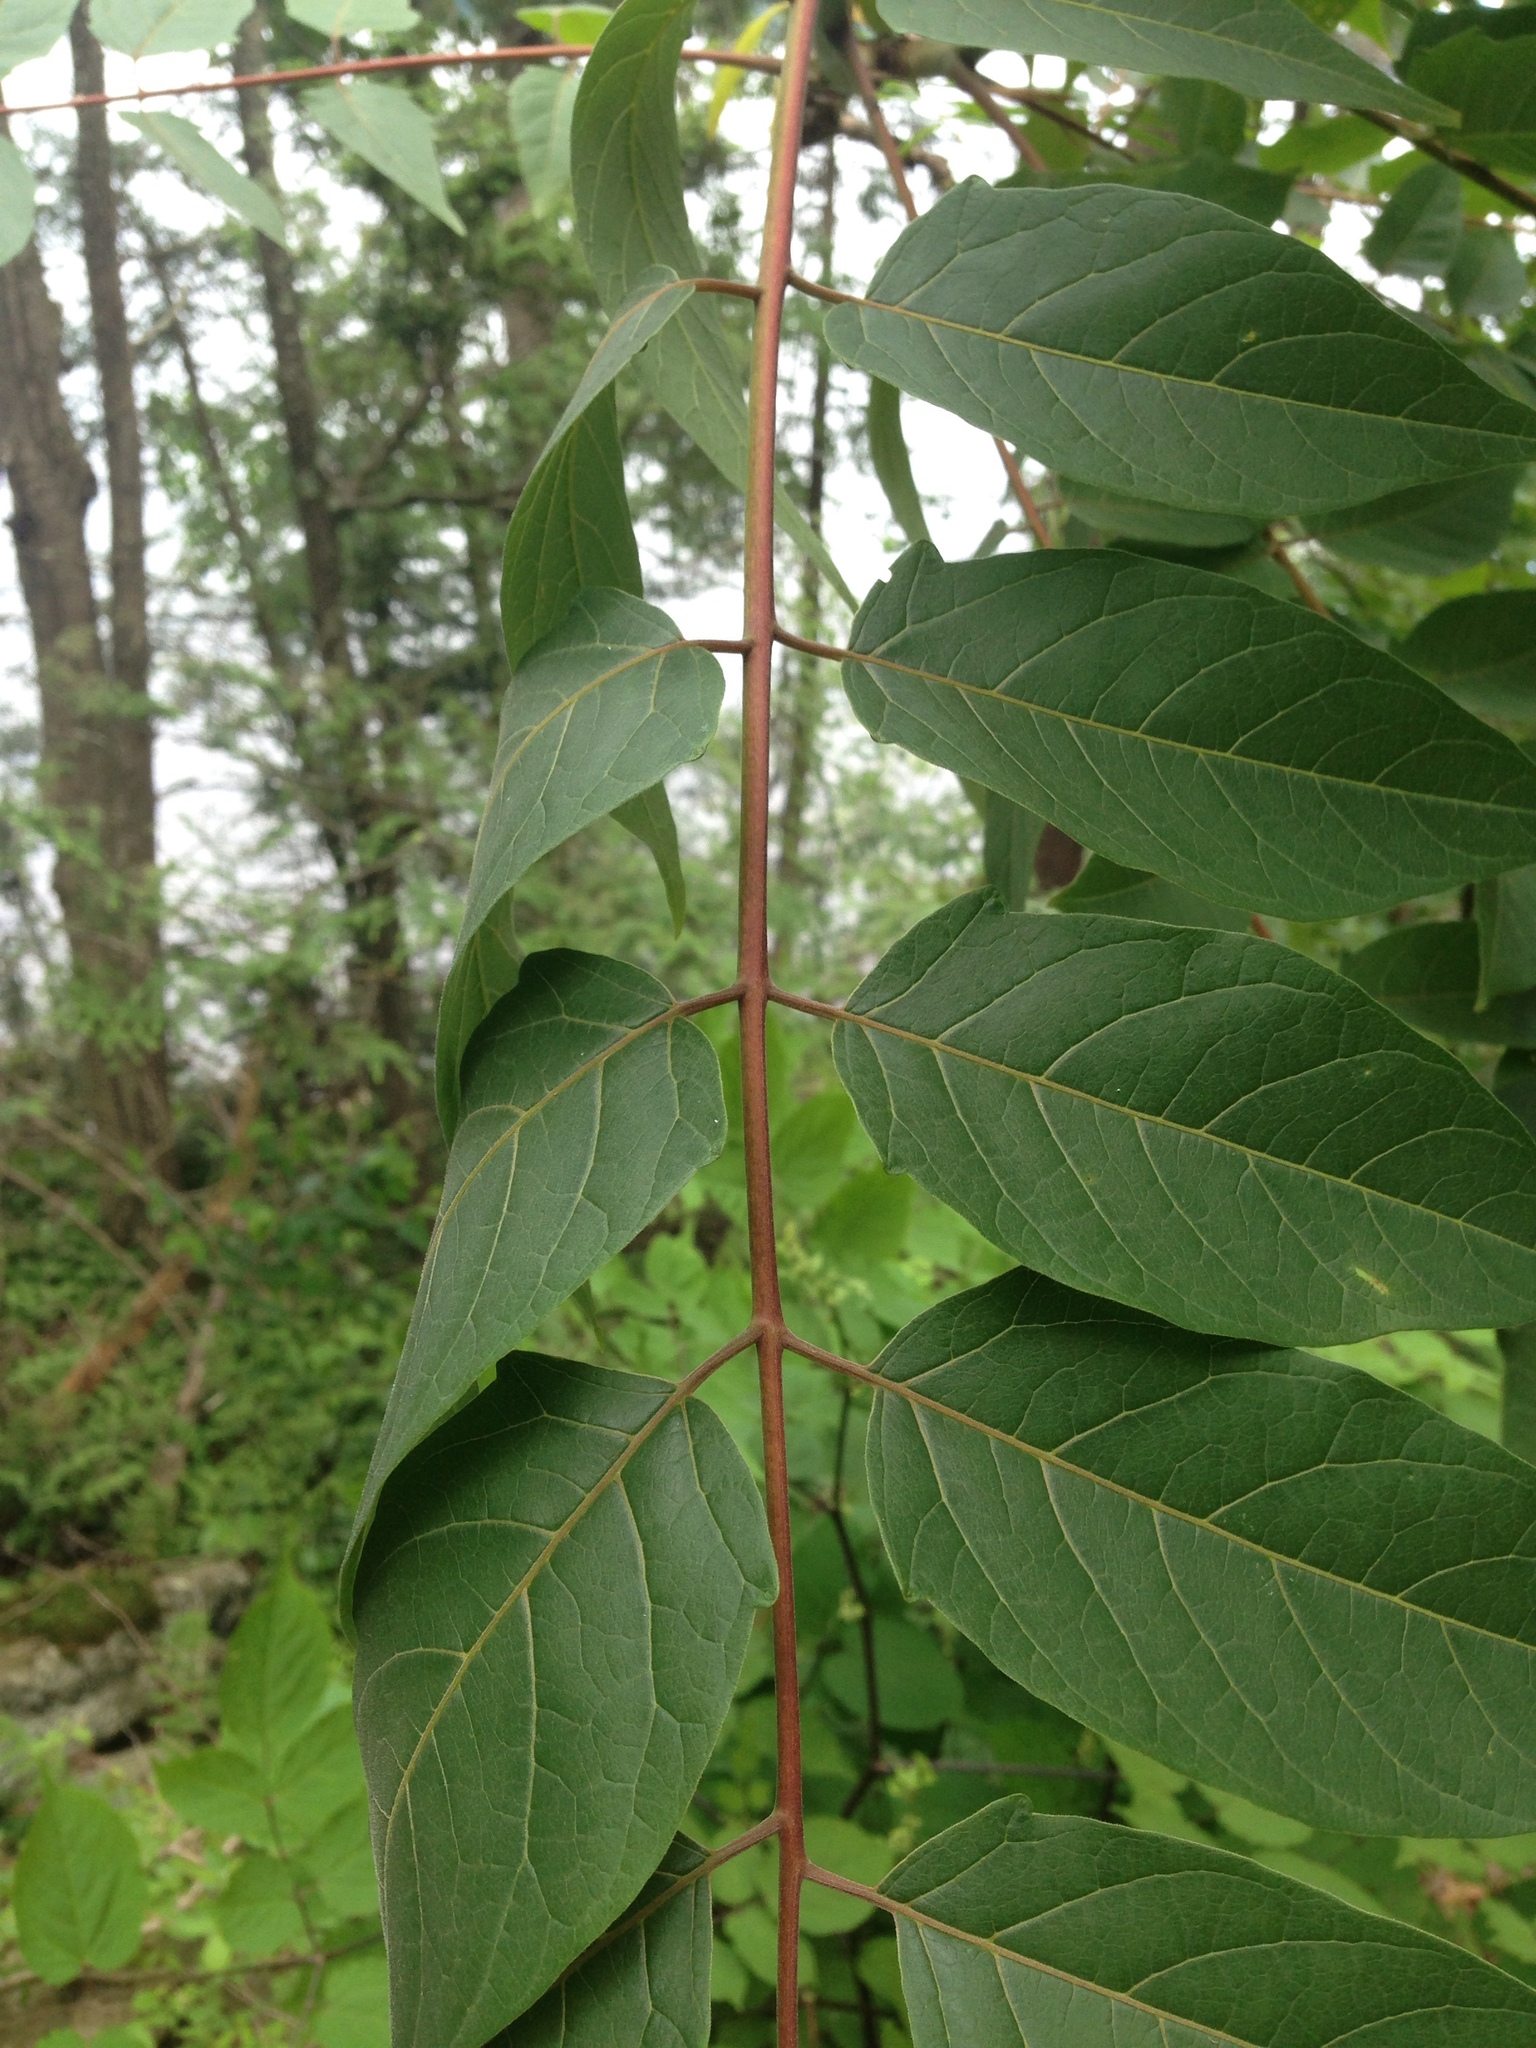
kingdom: Plantae
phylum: Tracheophyta
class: Magnoliopsida
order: Sapindales
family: Simaroubaceae
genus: Ailanthus
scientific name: Ailanthus altissima
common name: Tree-of-heaven
